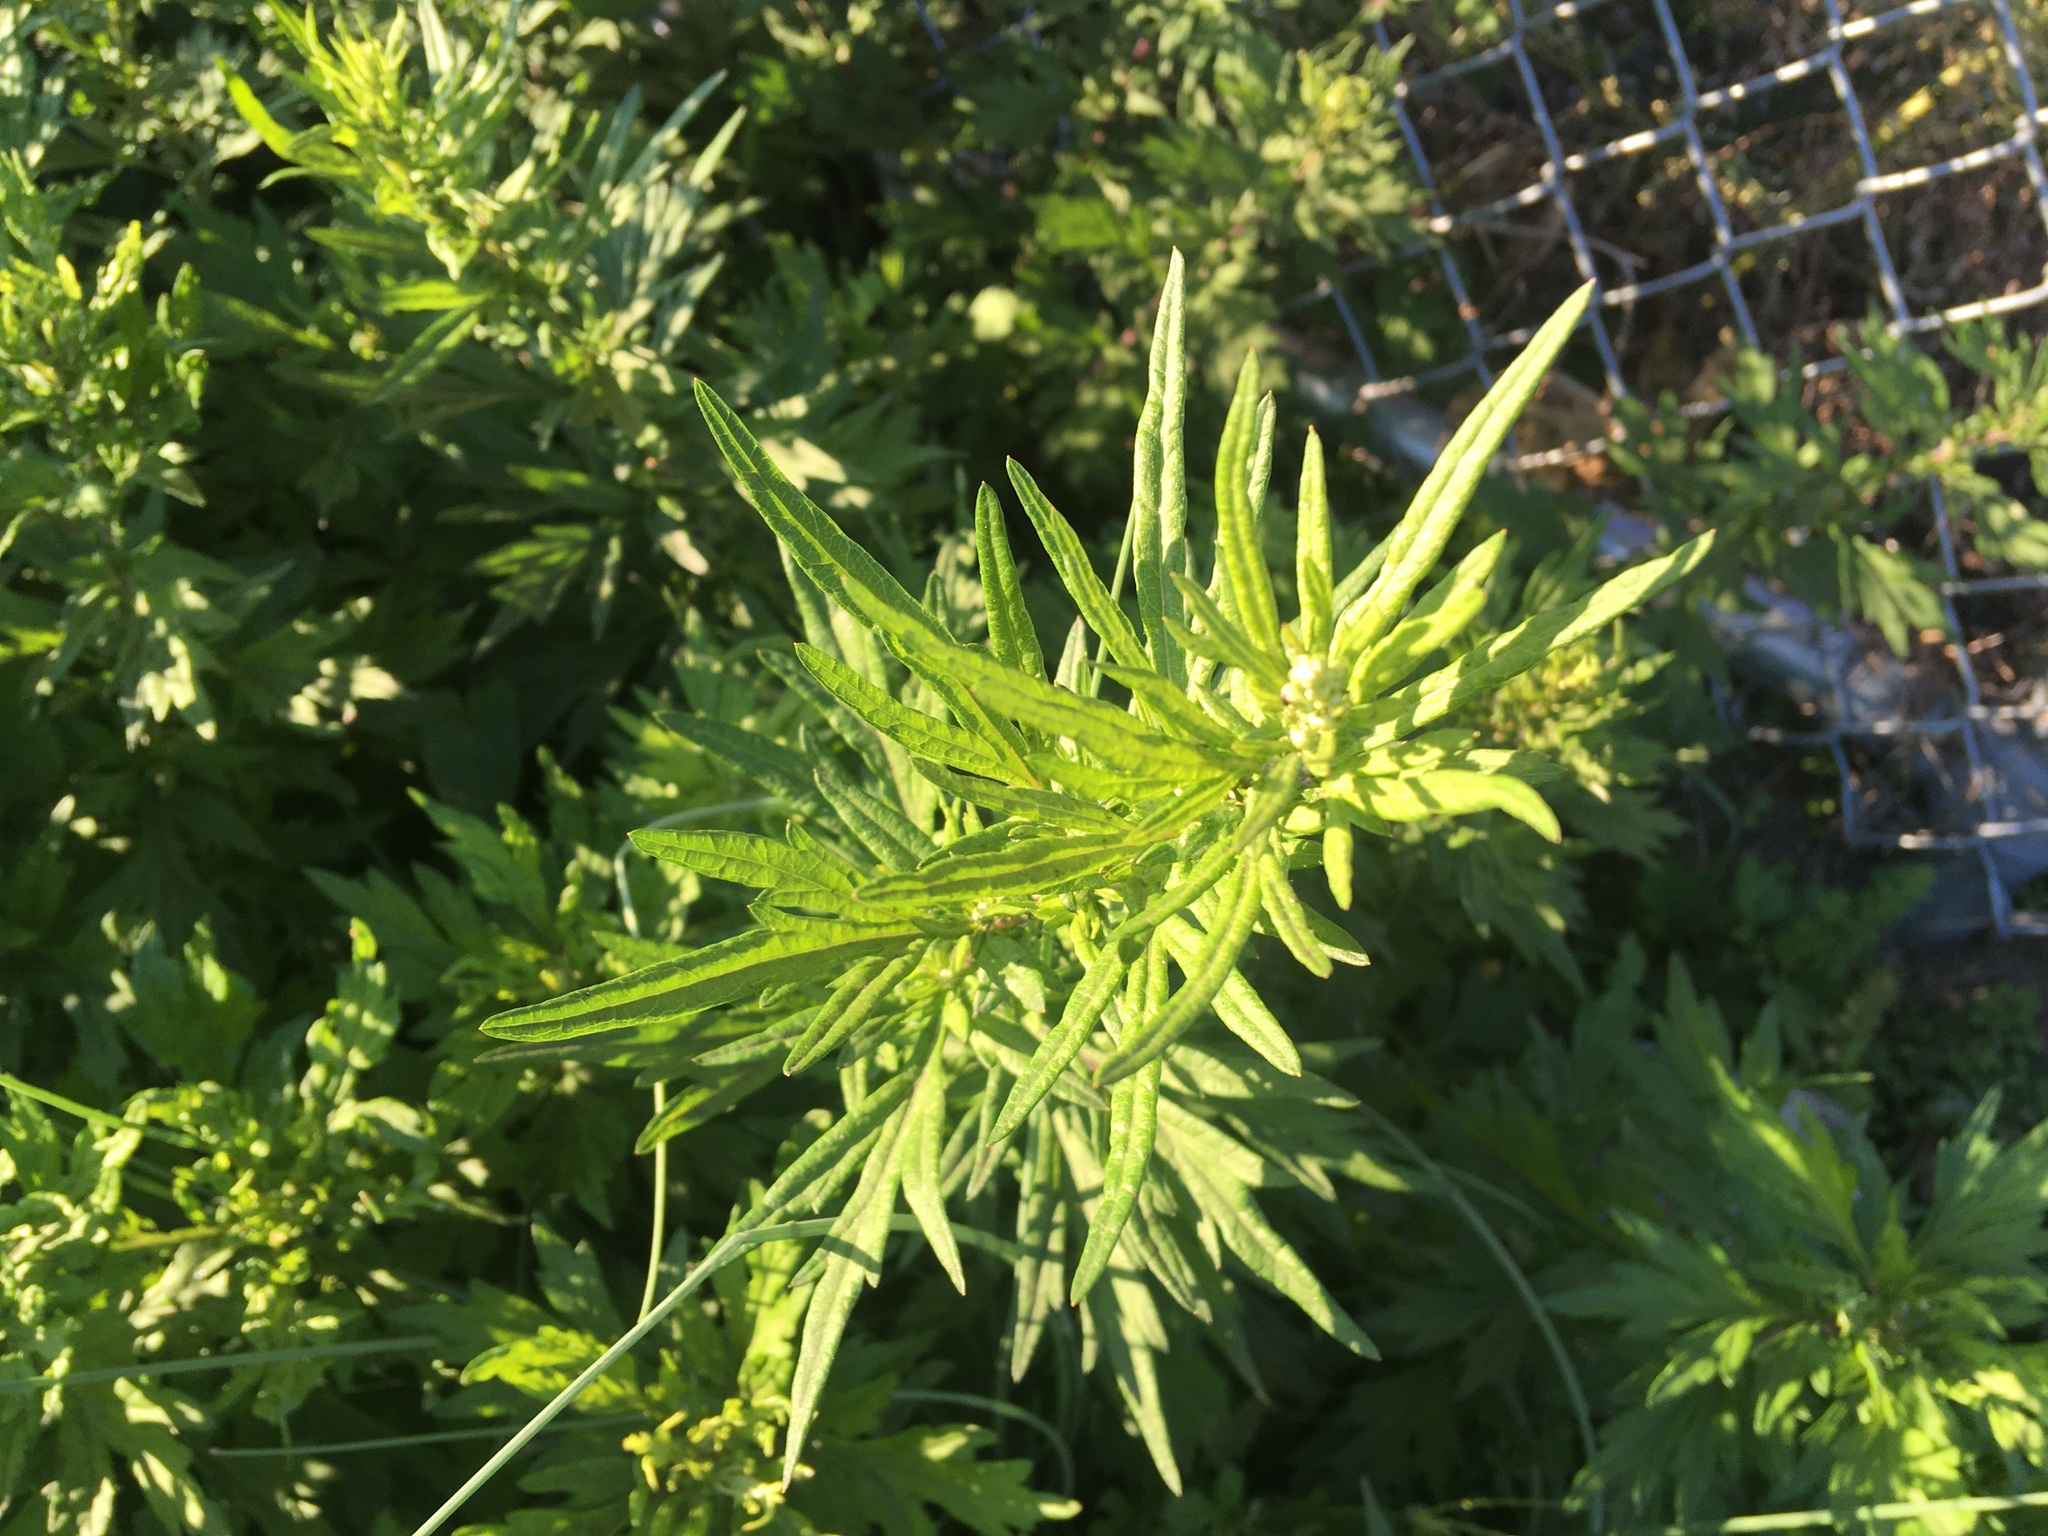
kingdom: Plantae
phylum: Tracheophyta
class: Magnoliopsida
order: Asterales
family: Asteraceae
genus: Artemisia
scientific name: Artemisia vulgaris
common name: Mugwort
